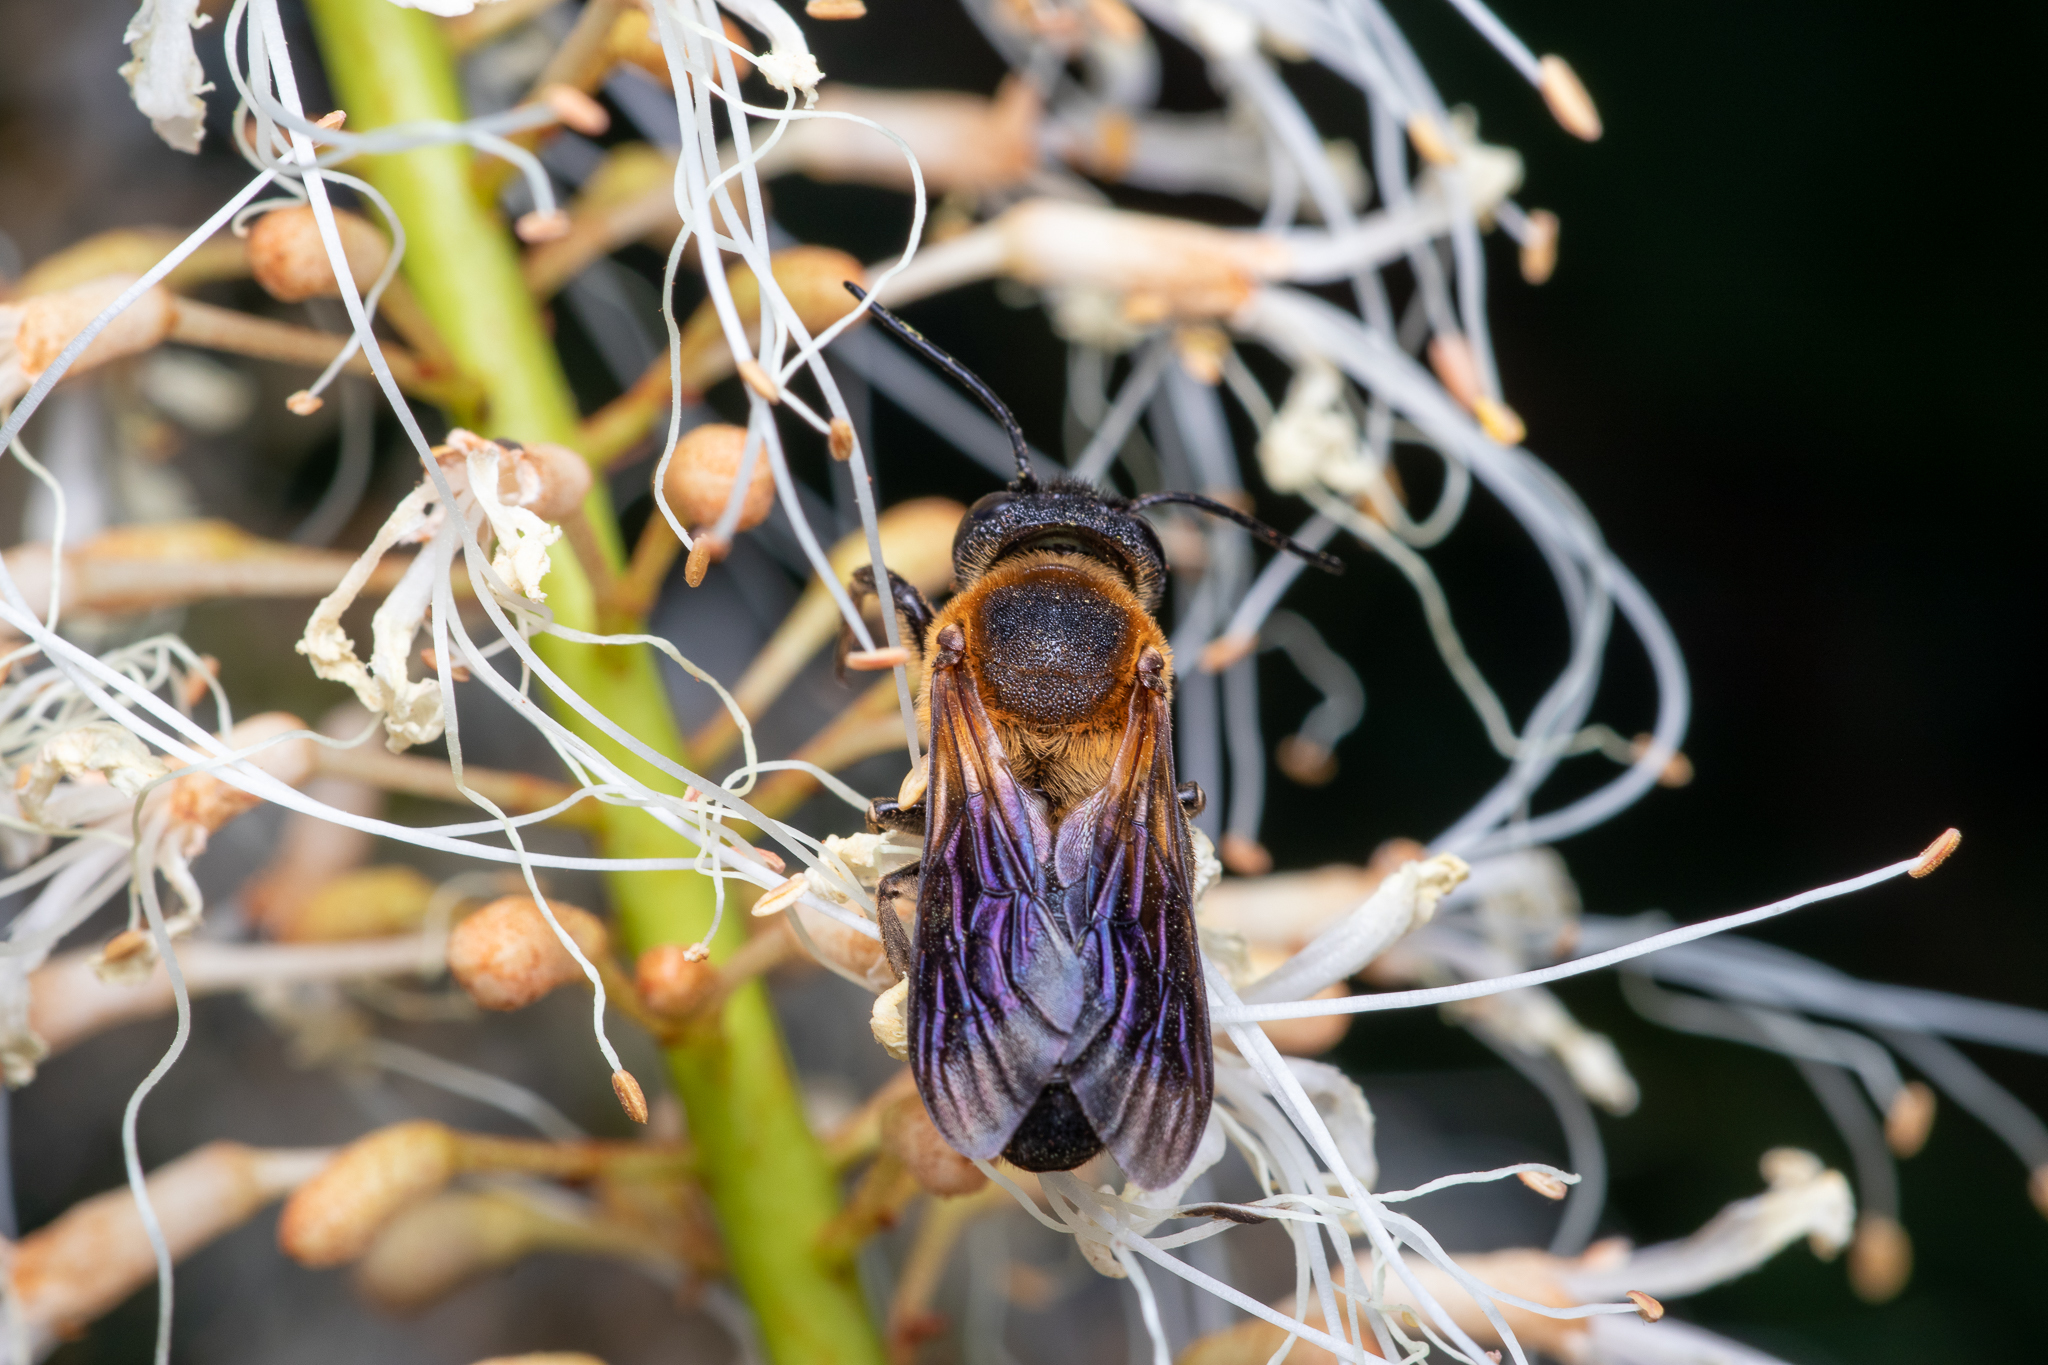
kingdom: Animalia
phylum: Arthropoda
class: Insecta
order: Hymenoptera
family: Megachilidae
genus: Megachile
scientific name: Megachile sculpturalis
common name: Sculptured resin bee
